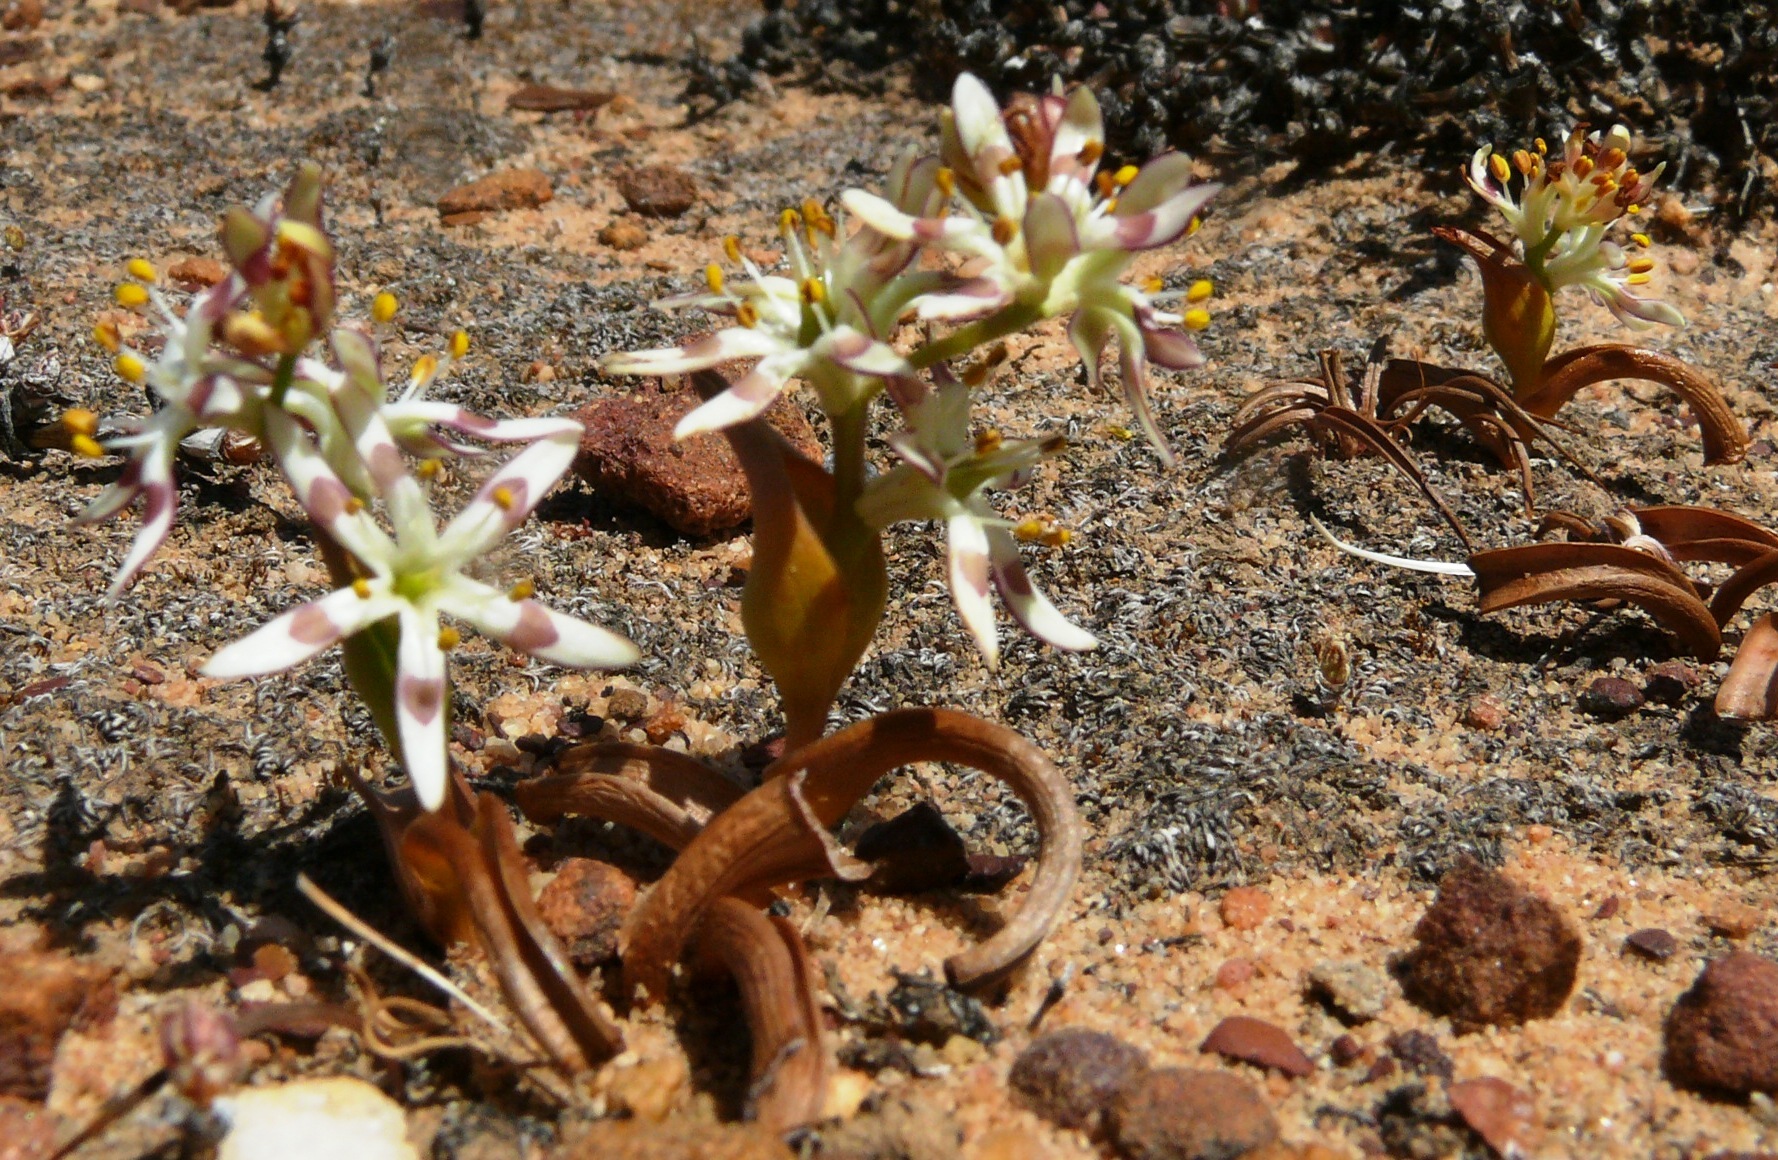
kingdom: Plantae
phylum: Tracheophyta
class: Liliopsida
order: Liliales
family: Colchicaceae
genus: Wurmbea
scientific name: Wurmbea variabilis
